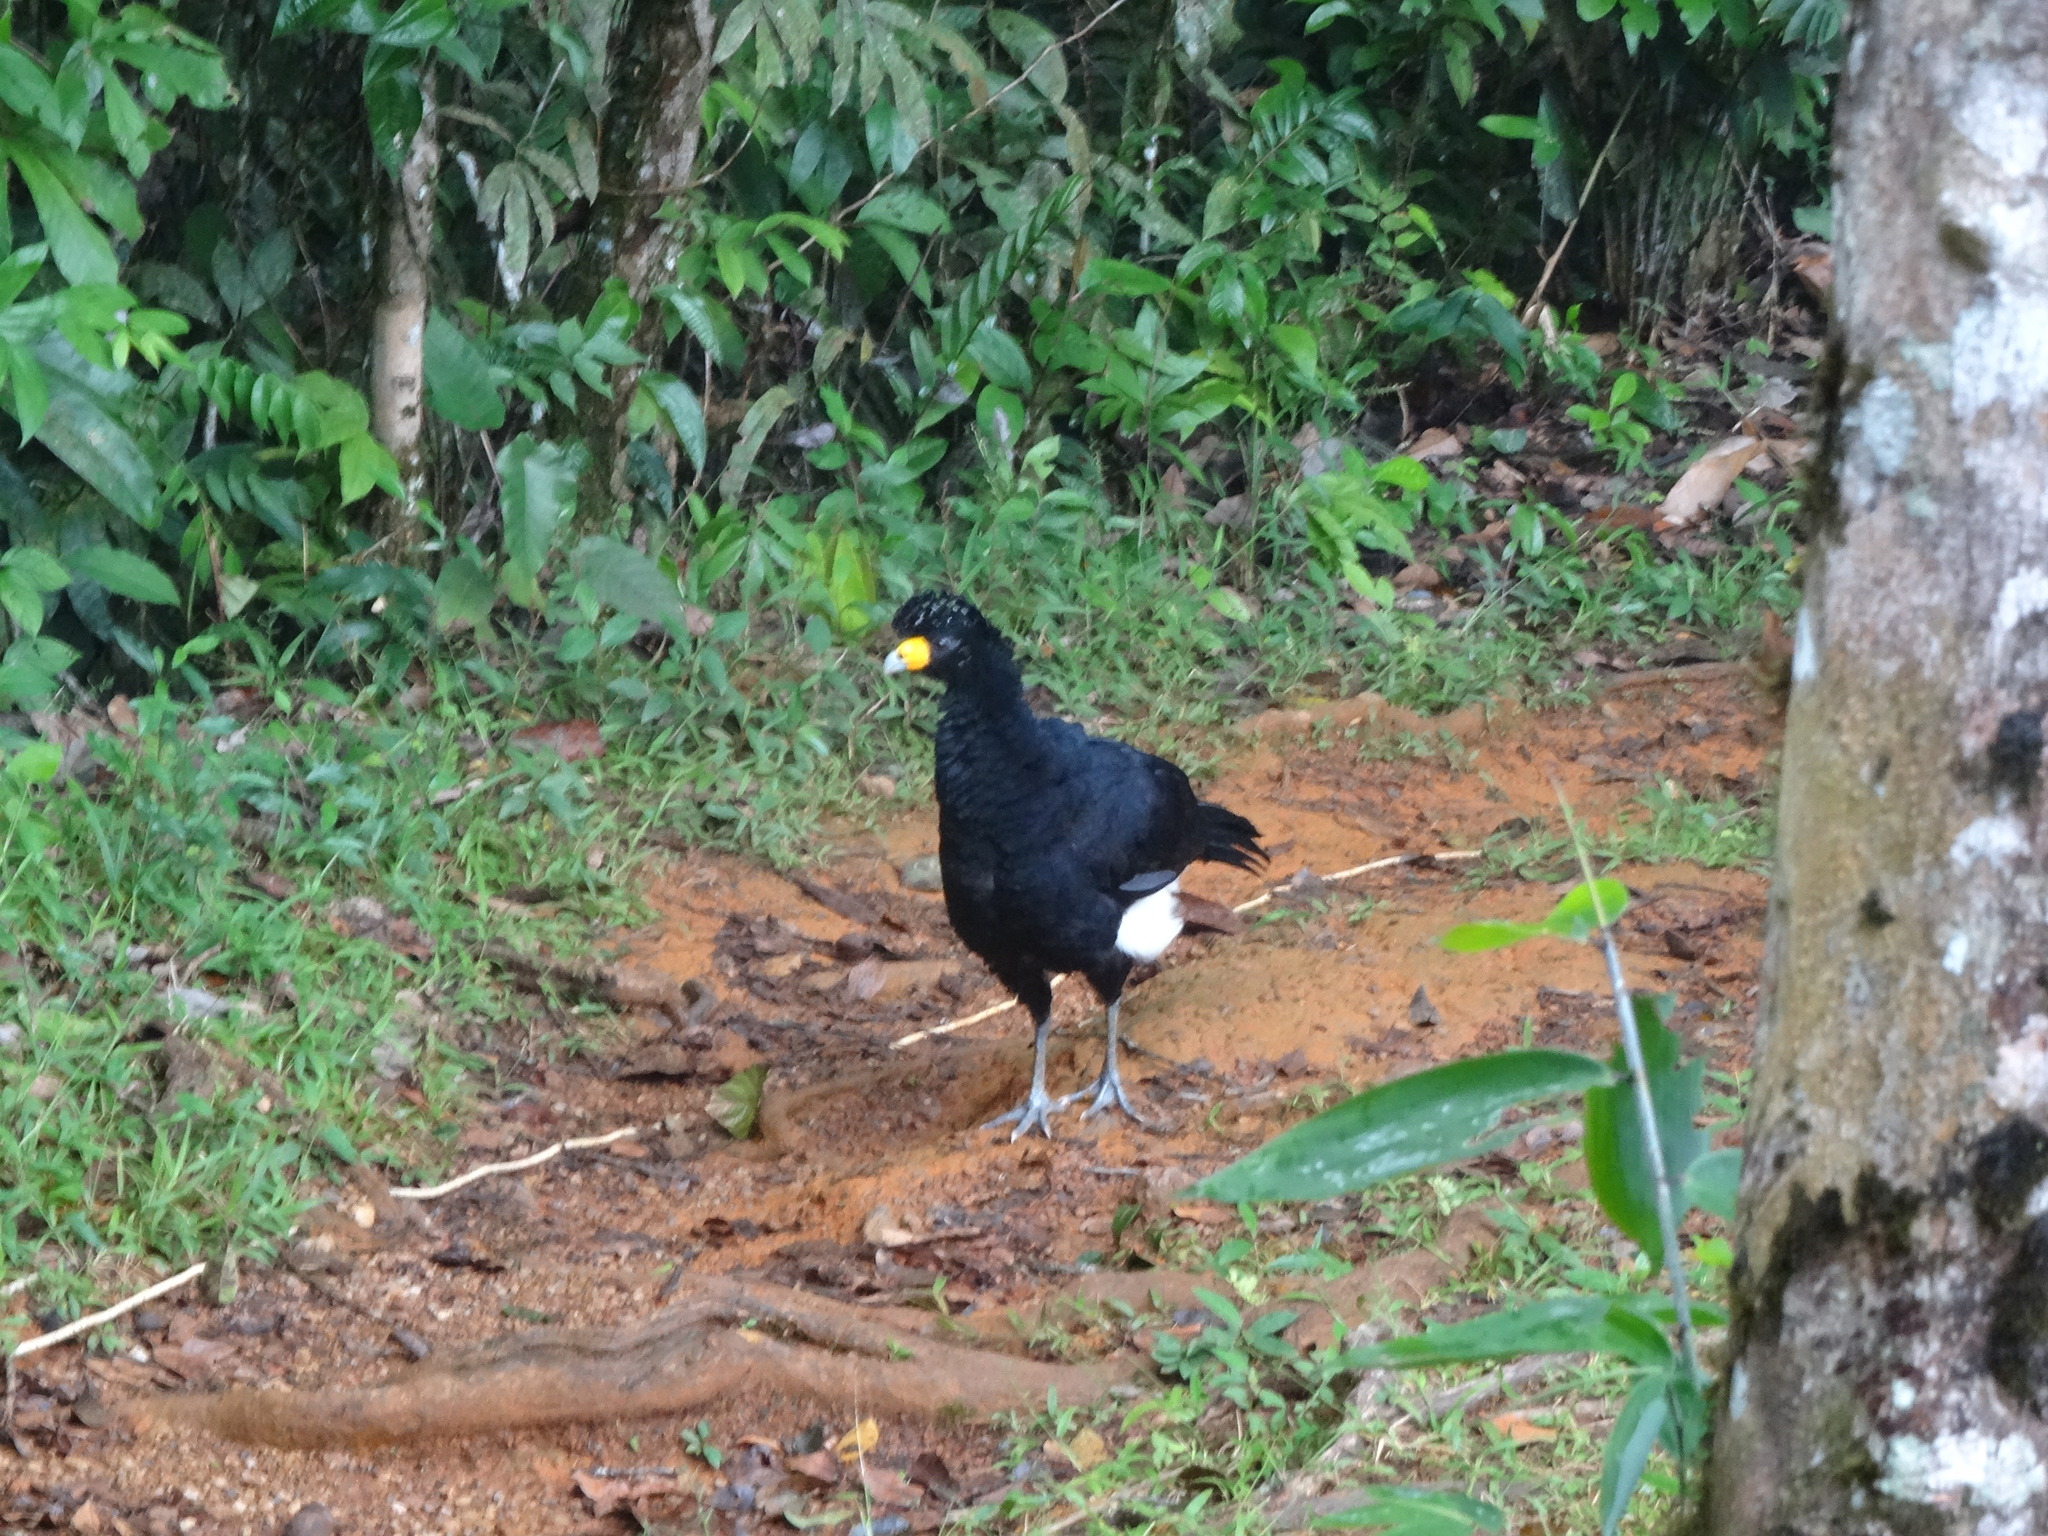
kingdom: Animalia
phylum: Chordata
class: Aves
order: Galliformes
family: Cracidae
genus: Crax
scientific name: Crax alector
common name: Black curassow
